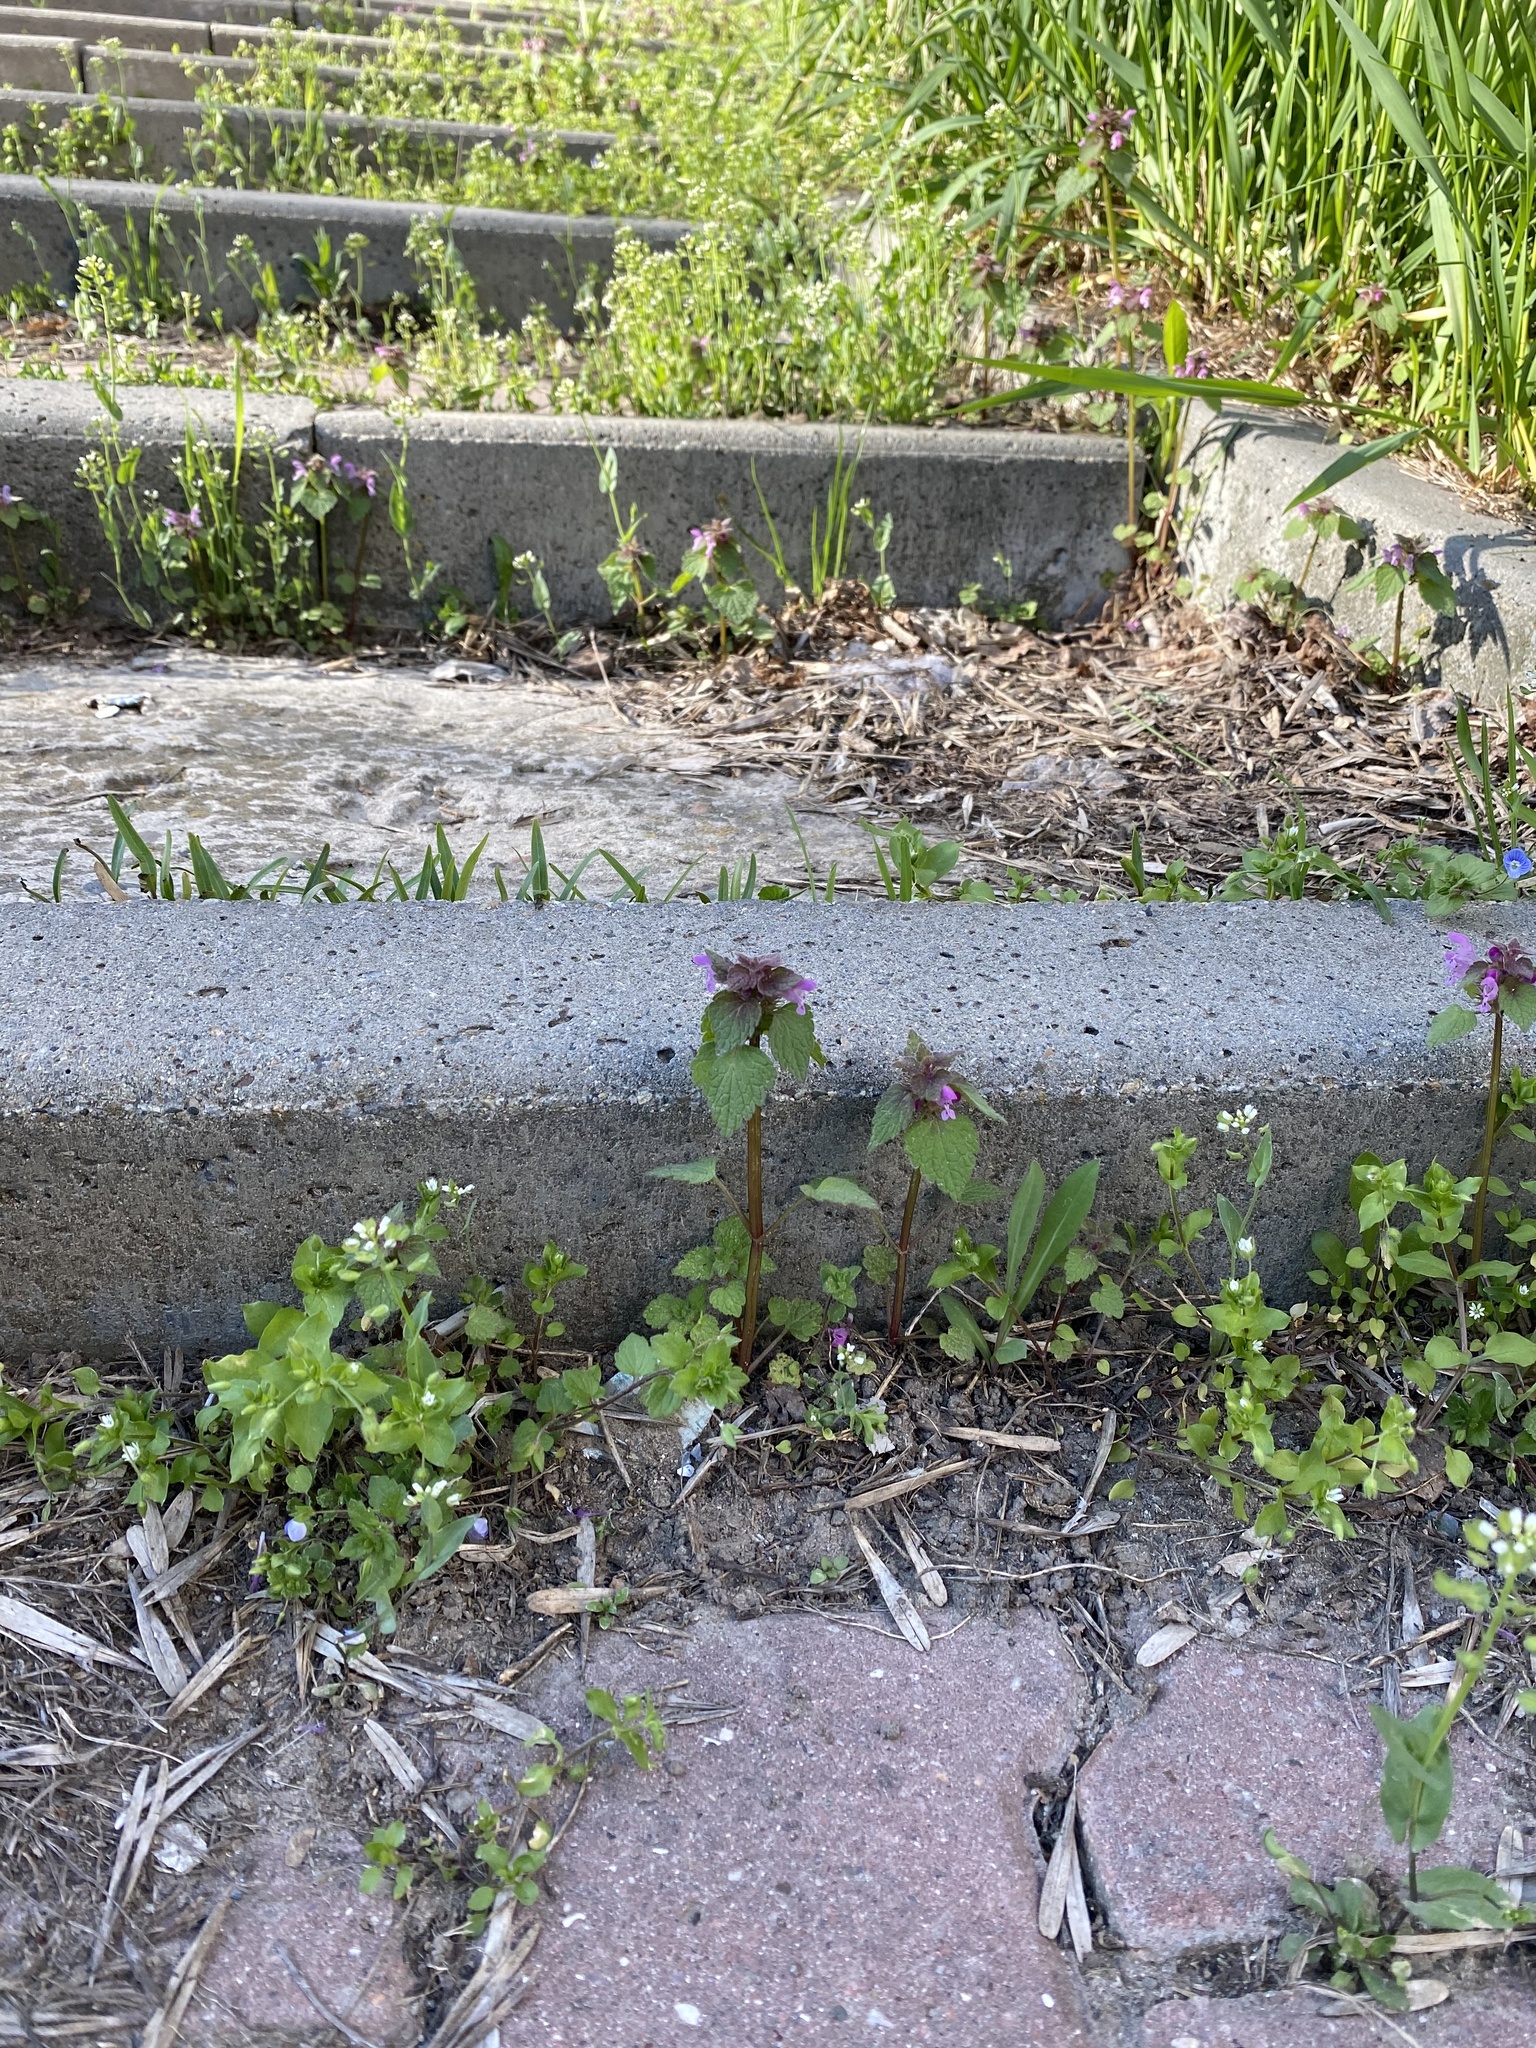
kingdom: Plantae
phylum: Tracheophyta
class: Magnoliopsida
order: Lamiales
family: Lamiaceae
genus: Lamium
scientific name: Lamium purpureum
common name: Red dead-nettle
